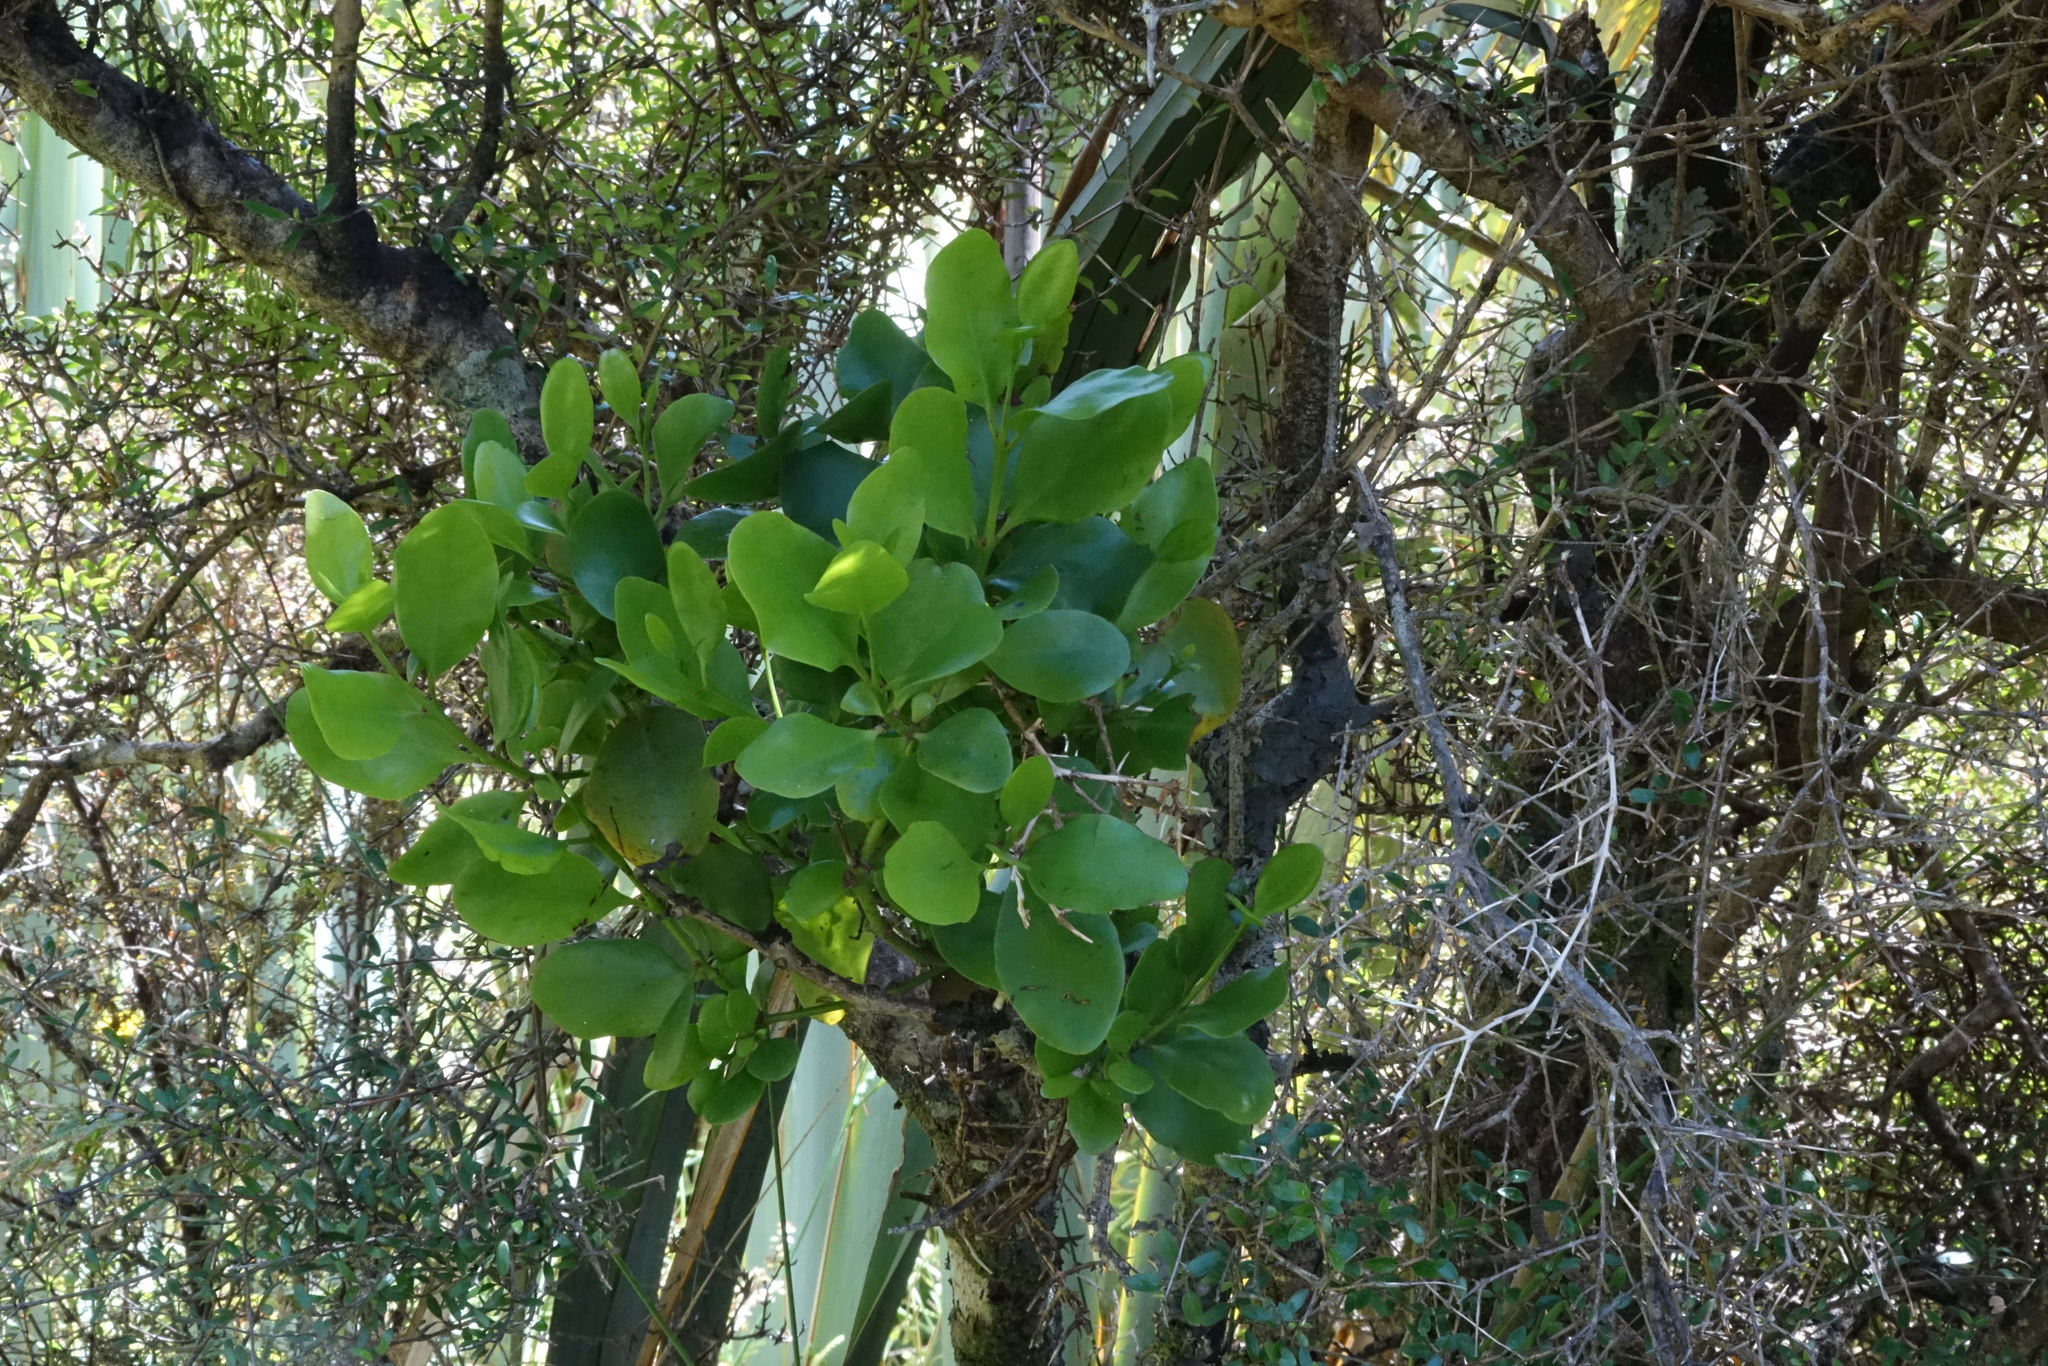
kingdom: Plantae
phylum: Tracheophyta
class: Magnoliopsida
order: Santalales
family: Loranthaceae
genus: Ileostylus
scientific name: Ileostylus micranthus
